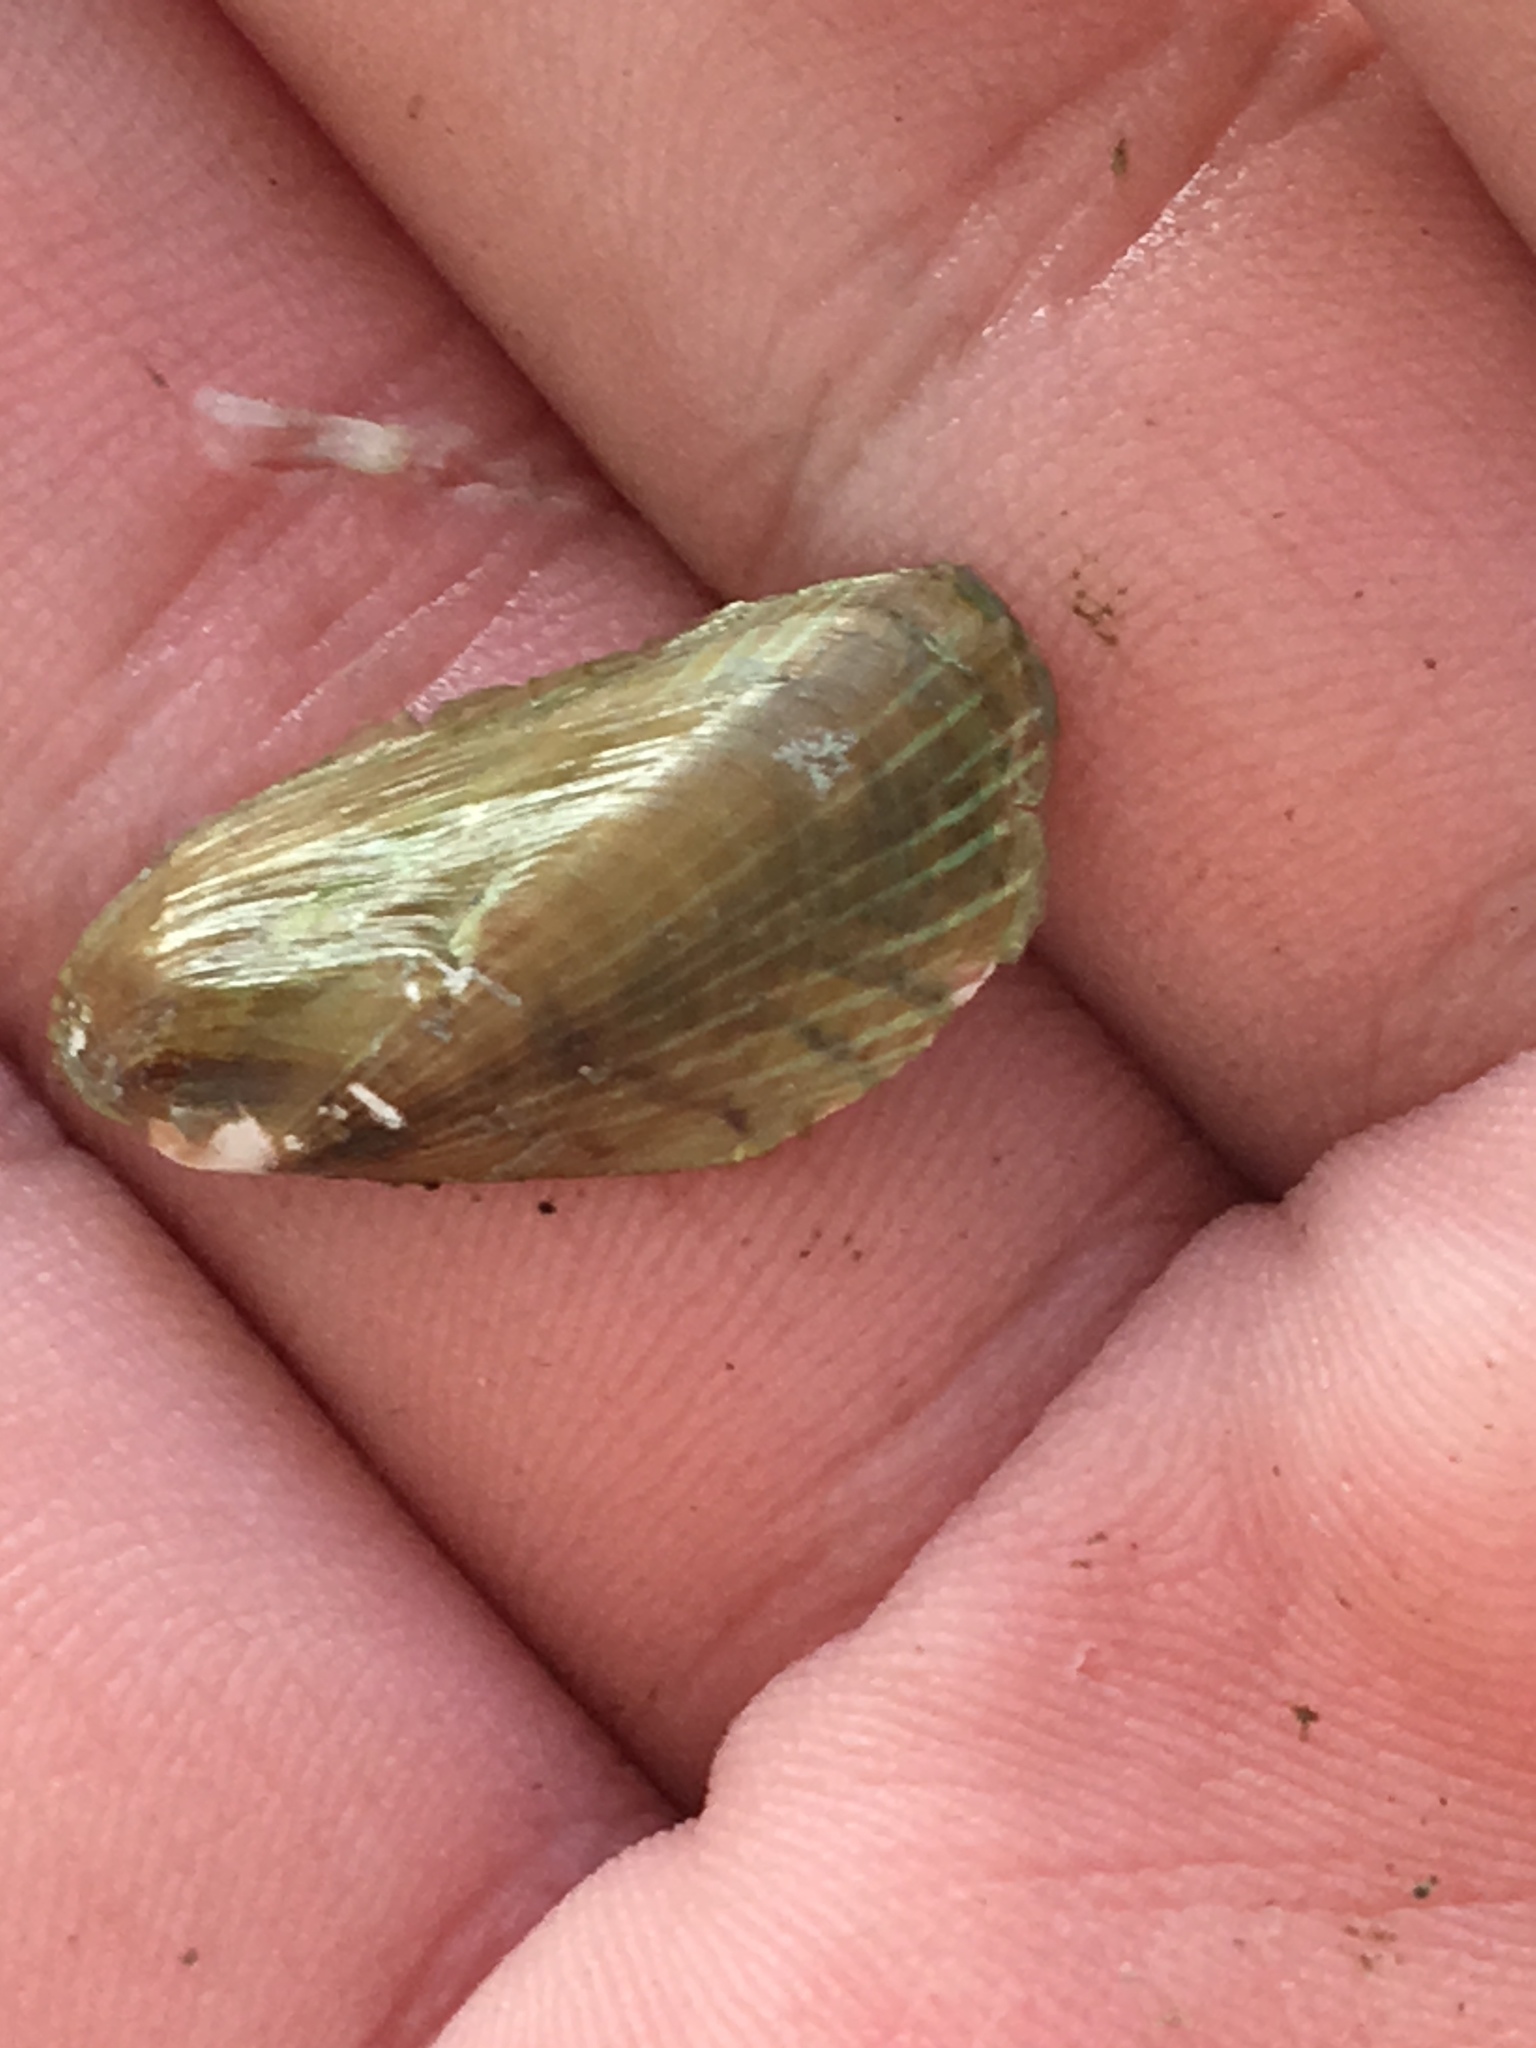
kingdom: Animalia
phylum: Mollusca
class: Bivalvia
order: Mytilida
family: Mytilidae
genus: Arcuatula
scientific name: Arcuatula senhousia
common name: Asian mussel
